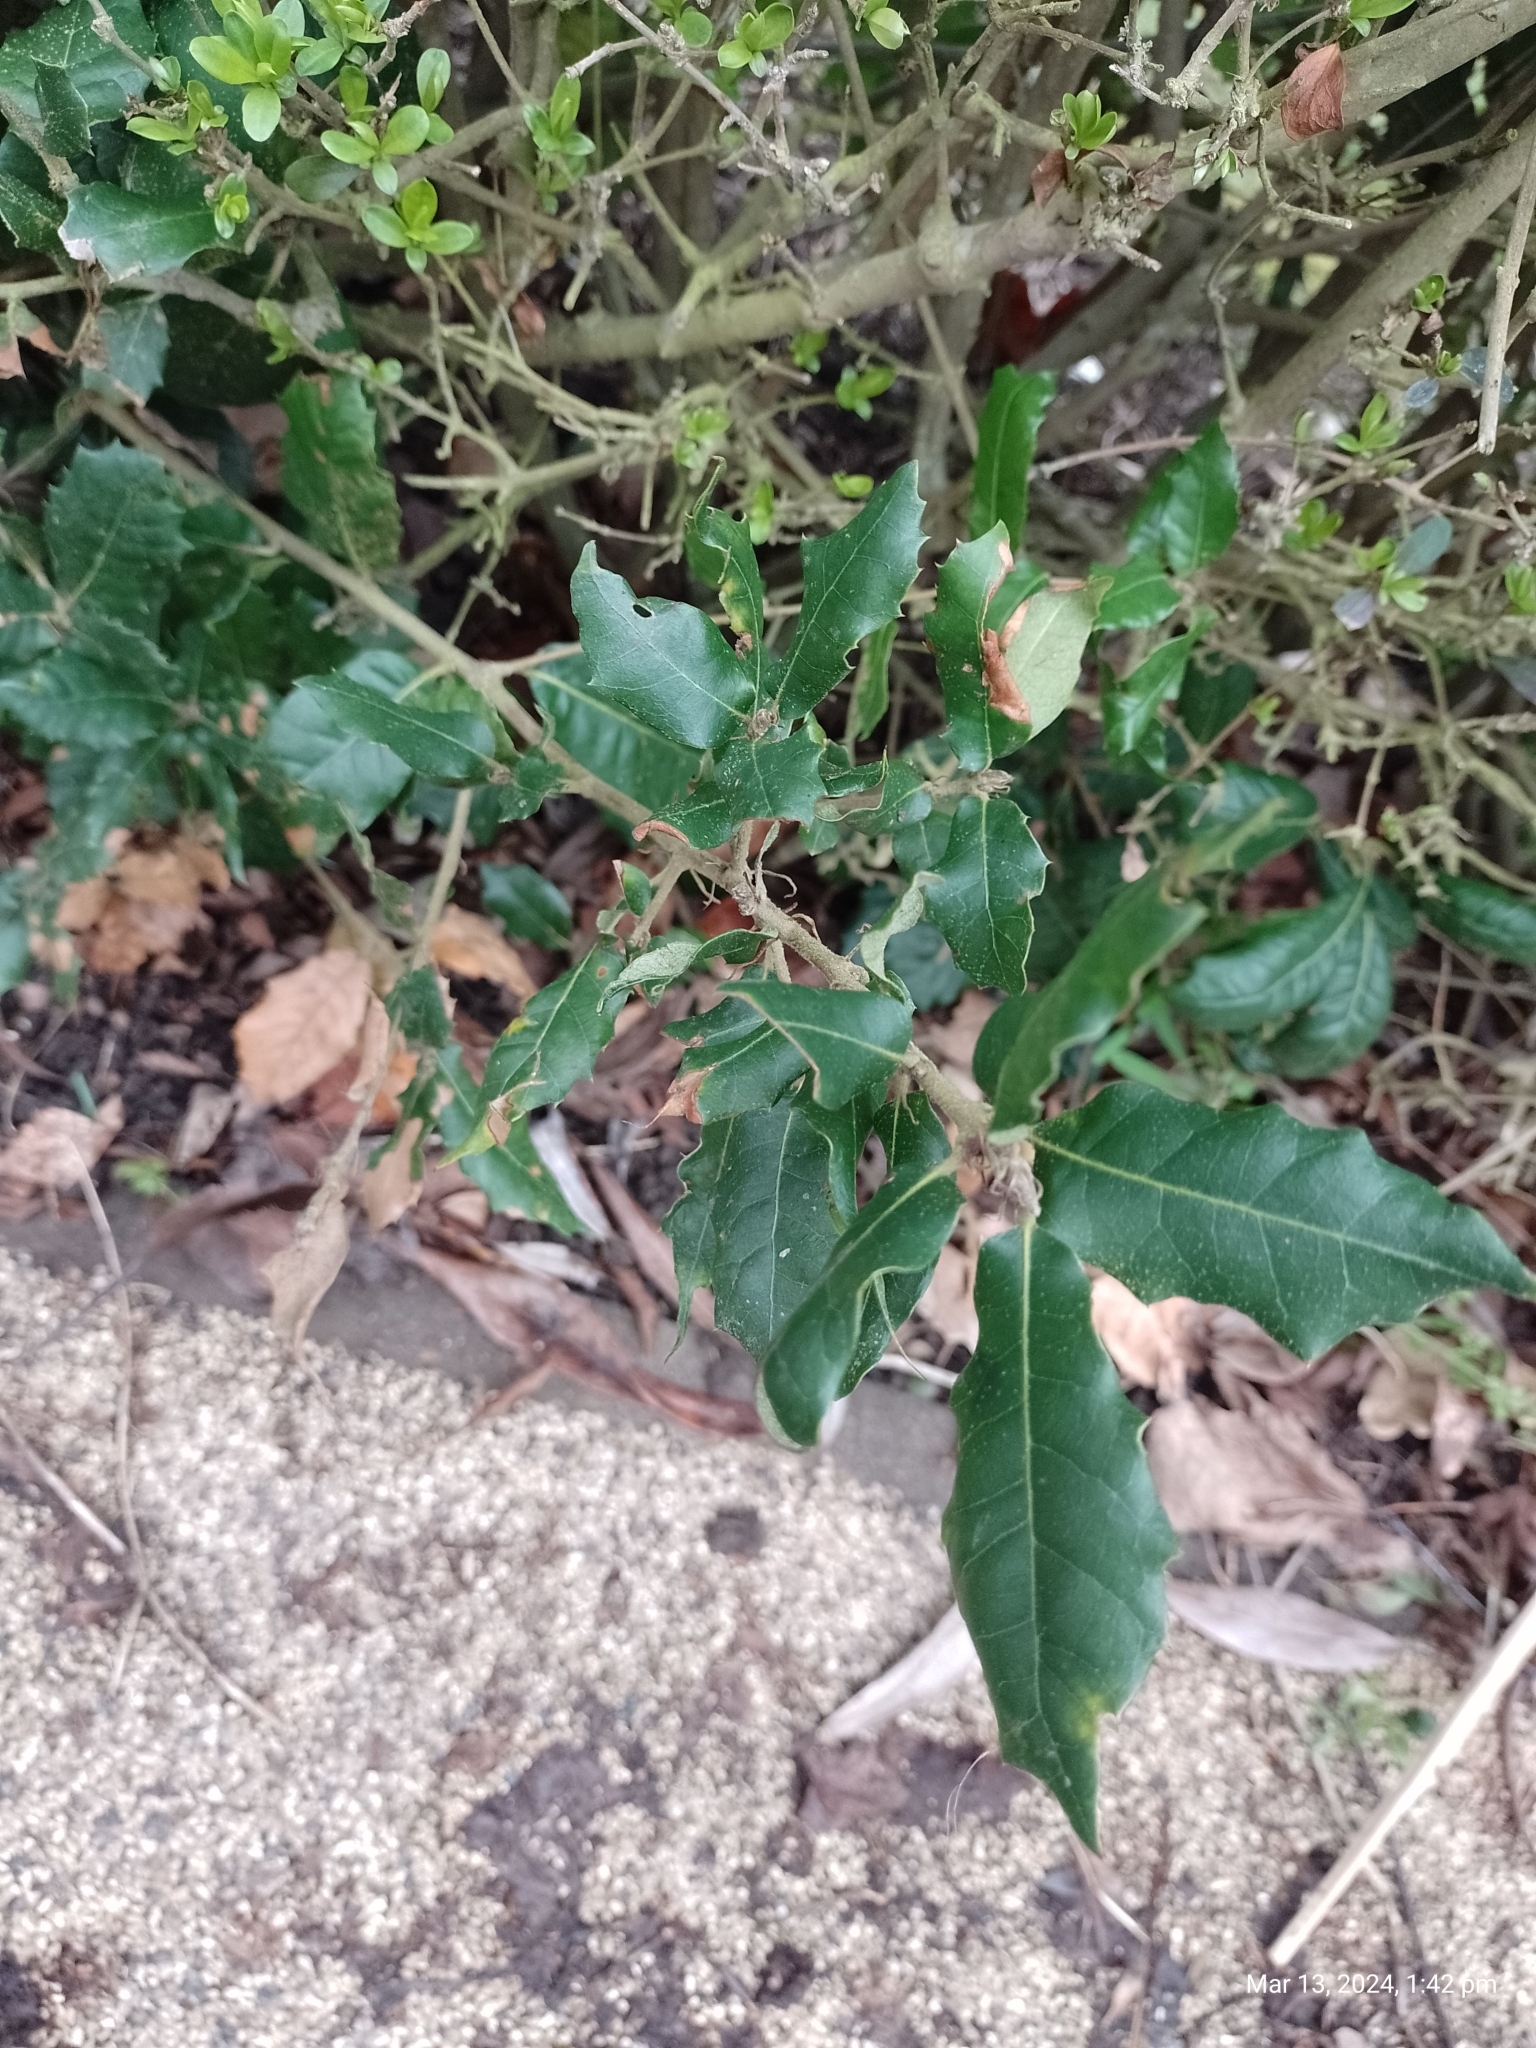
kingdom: Plantae
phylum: Tracheophyta
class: Magnoliopsida
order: Fagales
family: Fagaceae
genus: Quercus
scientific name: Quercus ilex
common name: Evergreen oak
